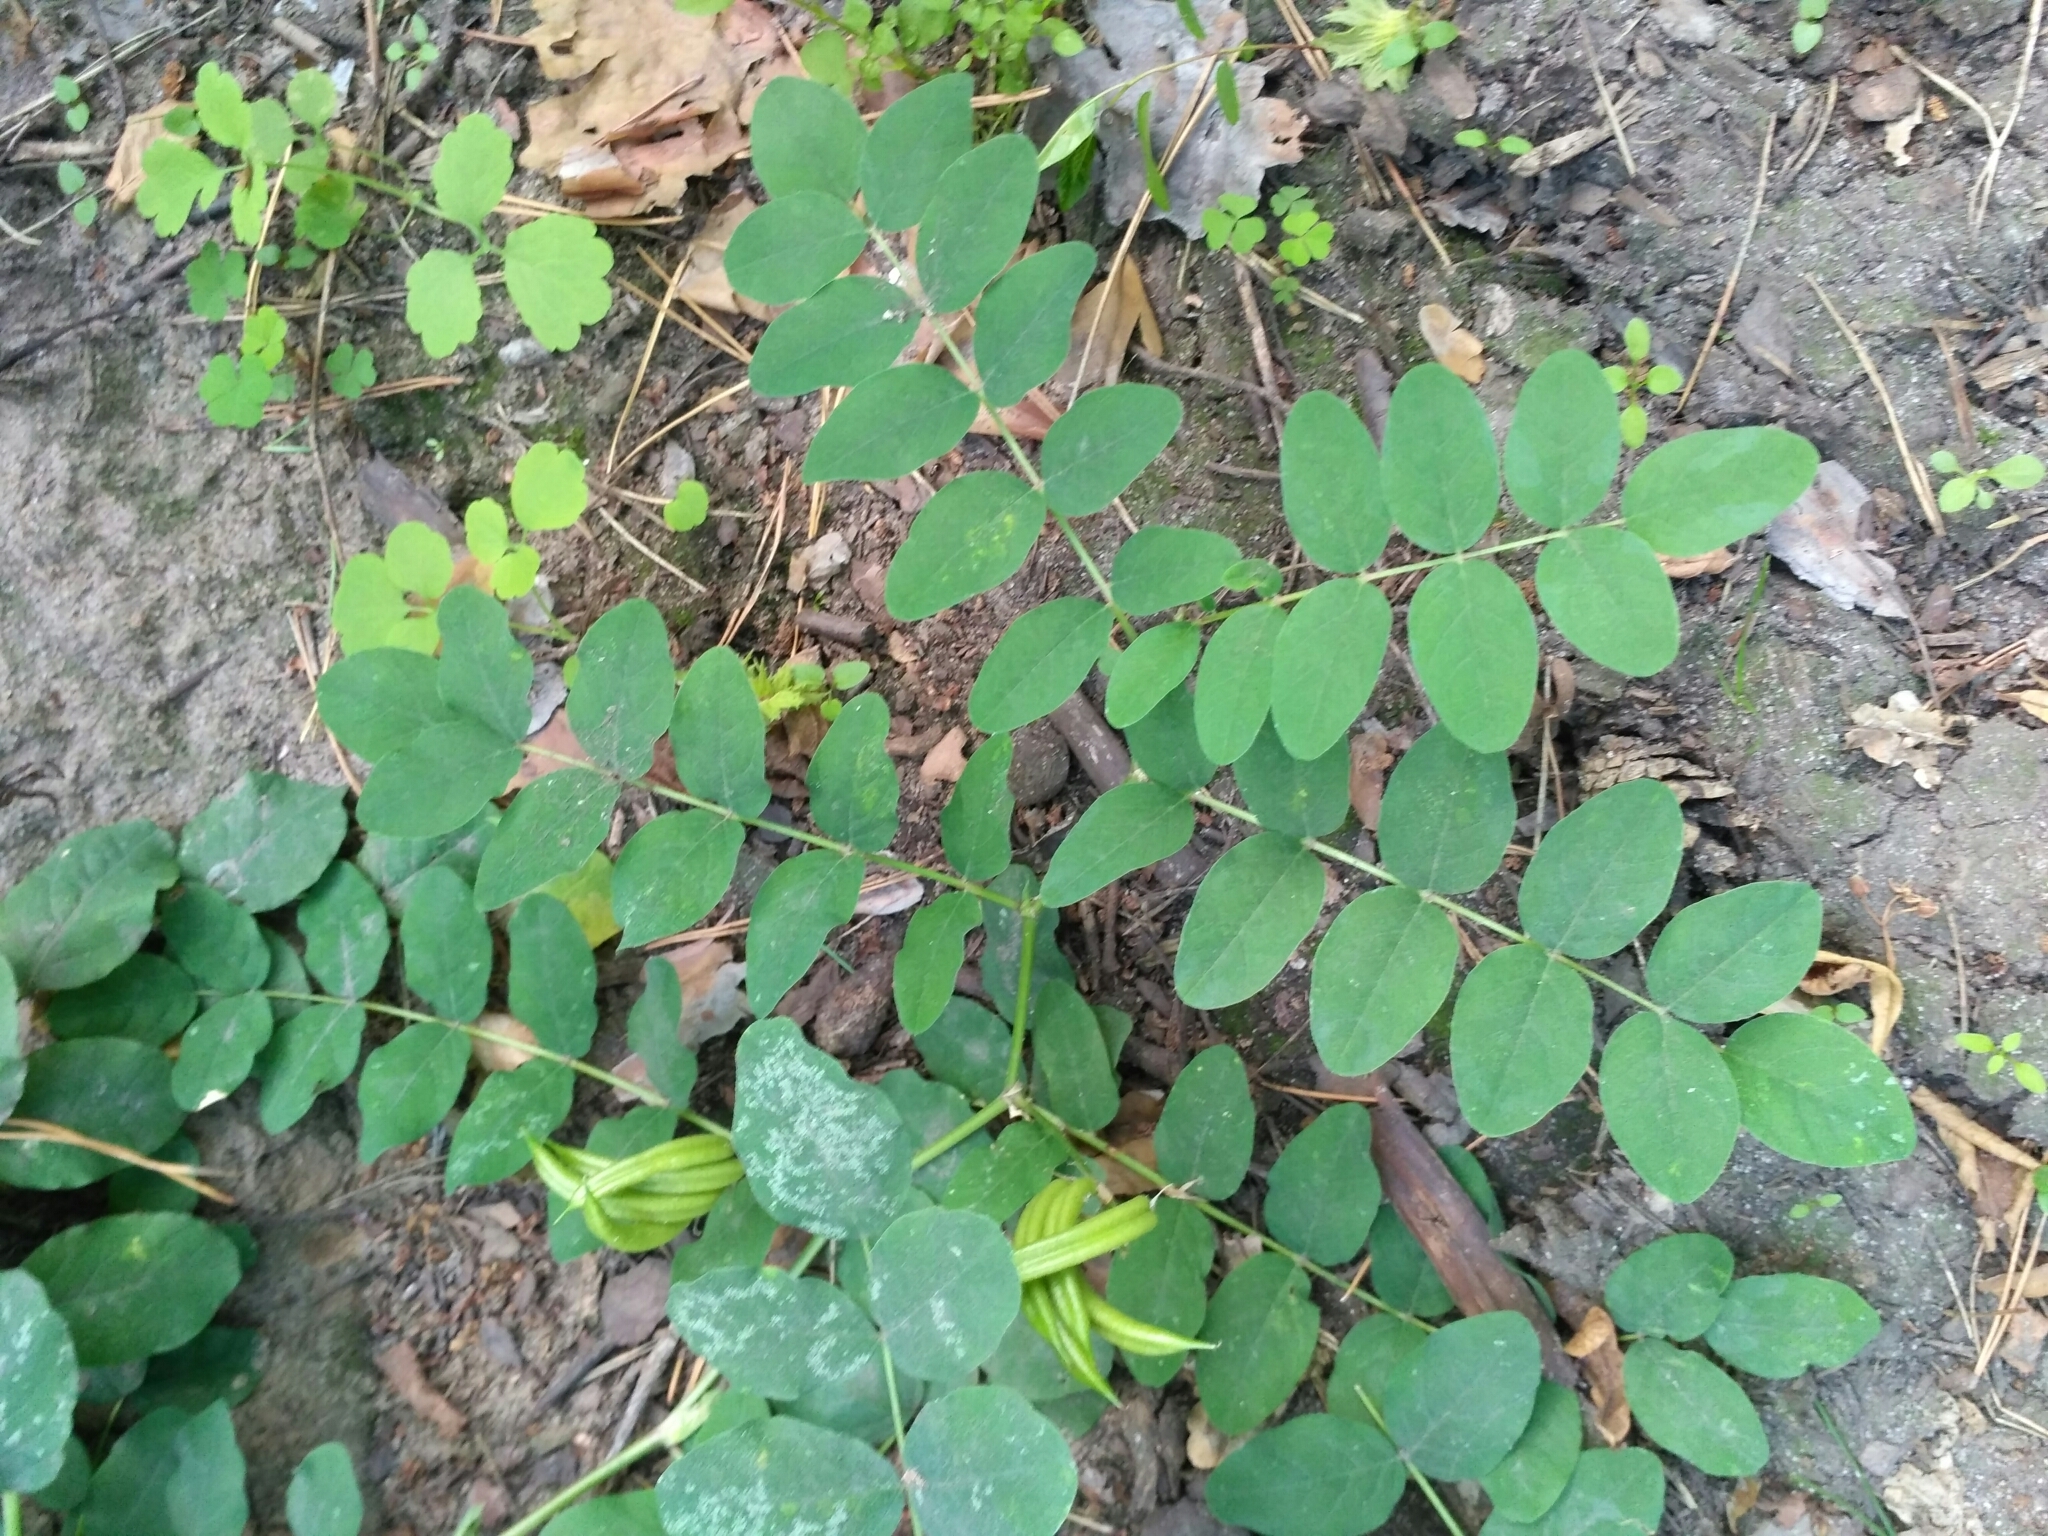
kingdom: Plantae
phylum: Tracheophyta
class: Magnoliopsida
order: Fabales
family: Fabaceae
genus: Astragalus
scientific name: Astragalus glycyphyllos
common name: Wild liquorice
